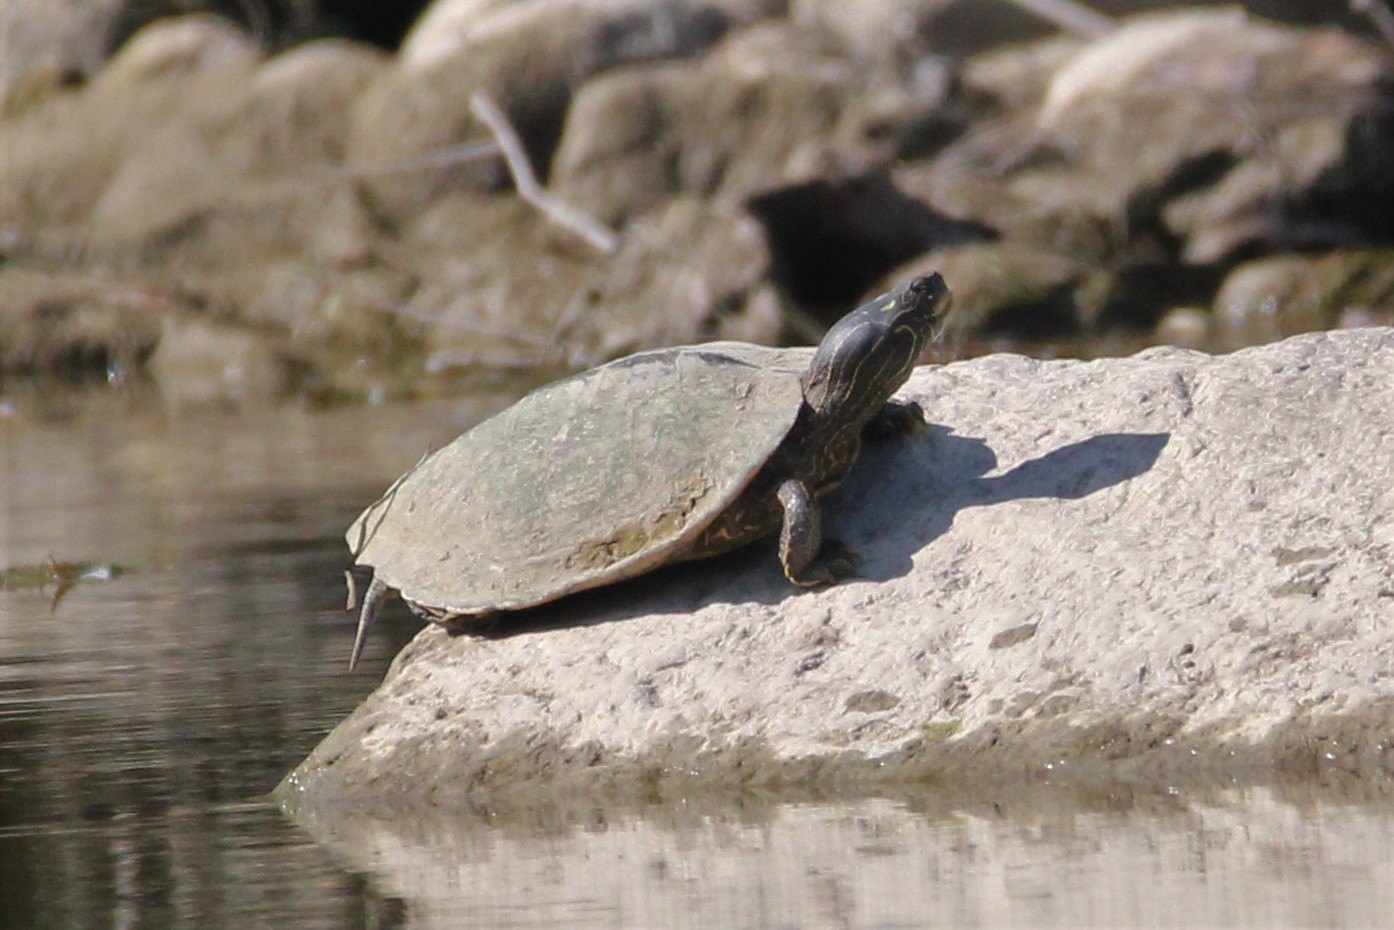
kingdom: Animalia
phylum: Chordata
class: Testudines
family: Emydidae
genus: Graptemys
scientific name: Graptemys geographica
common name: Common map turtle
